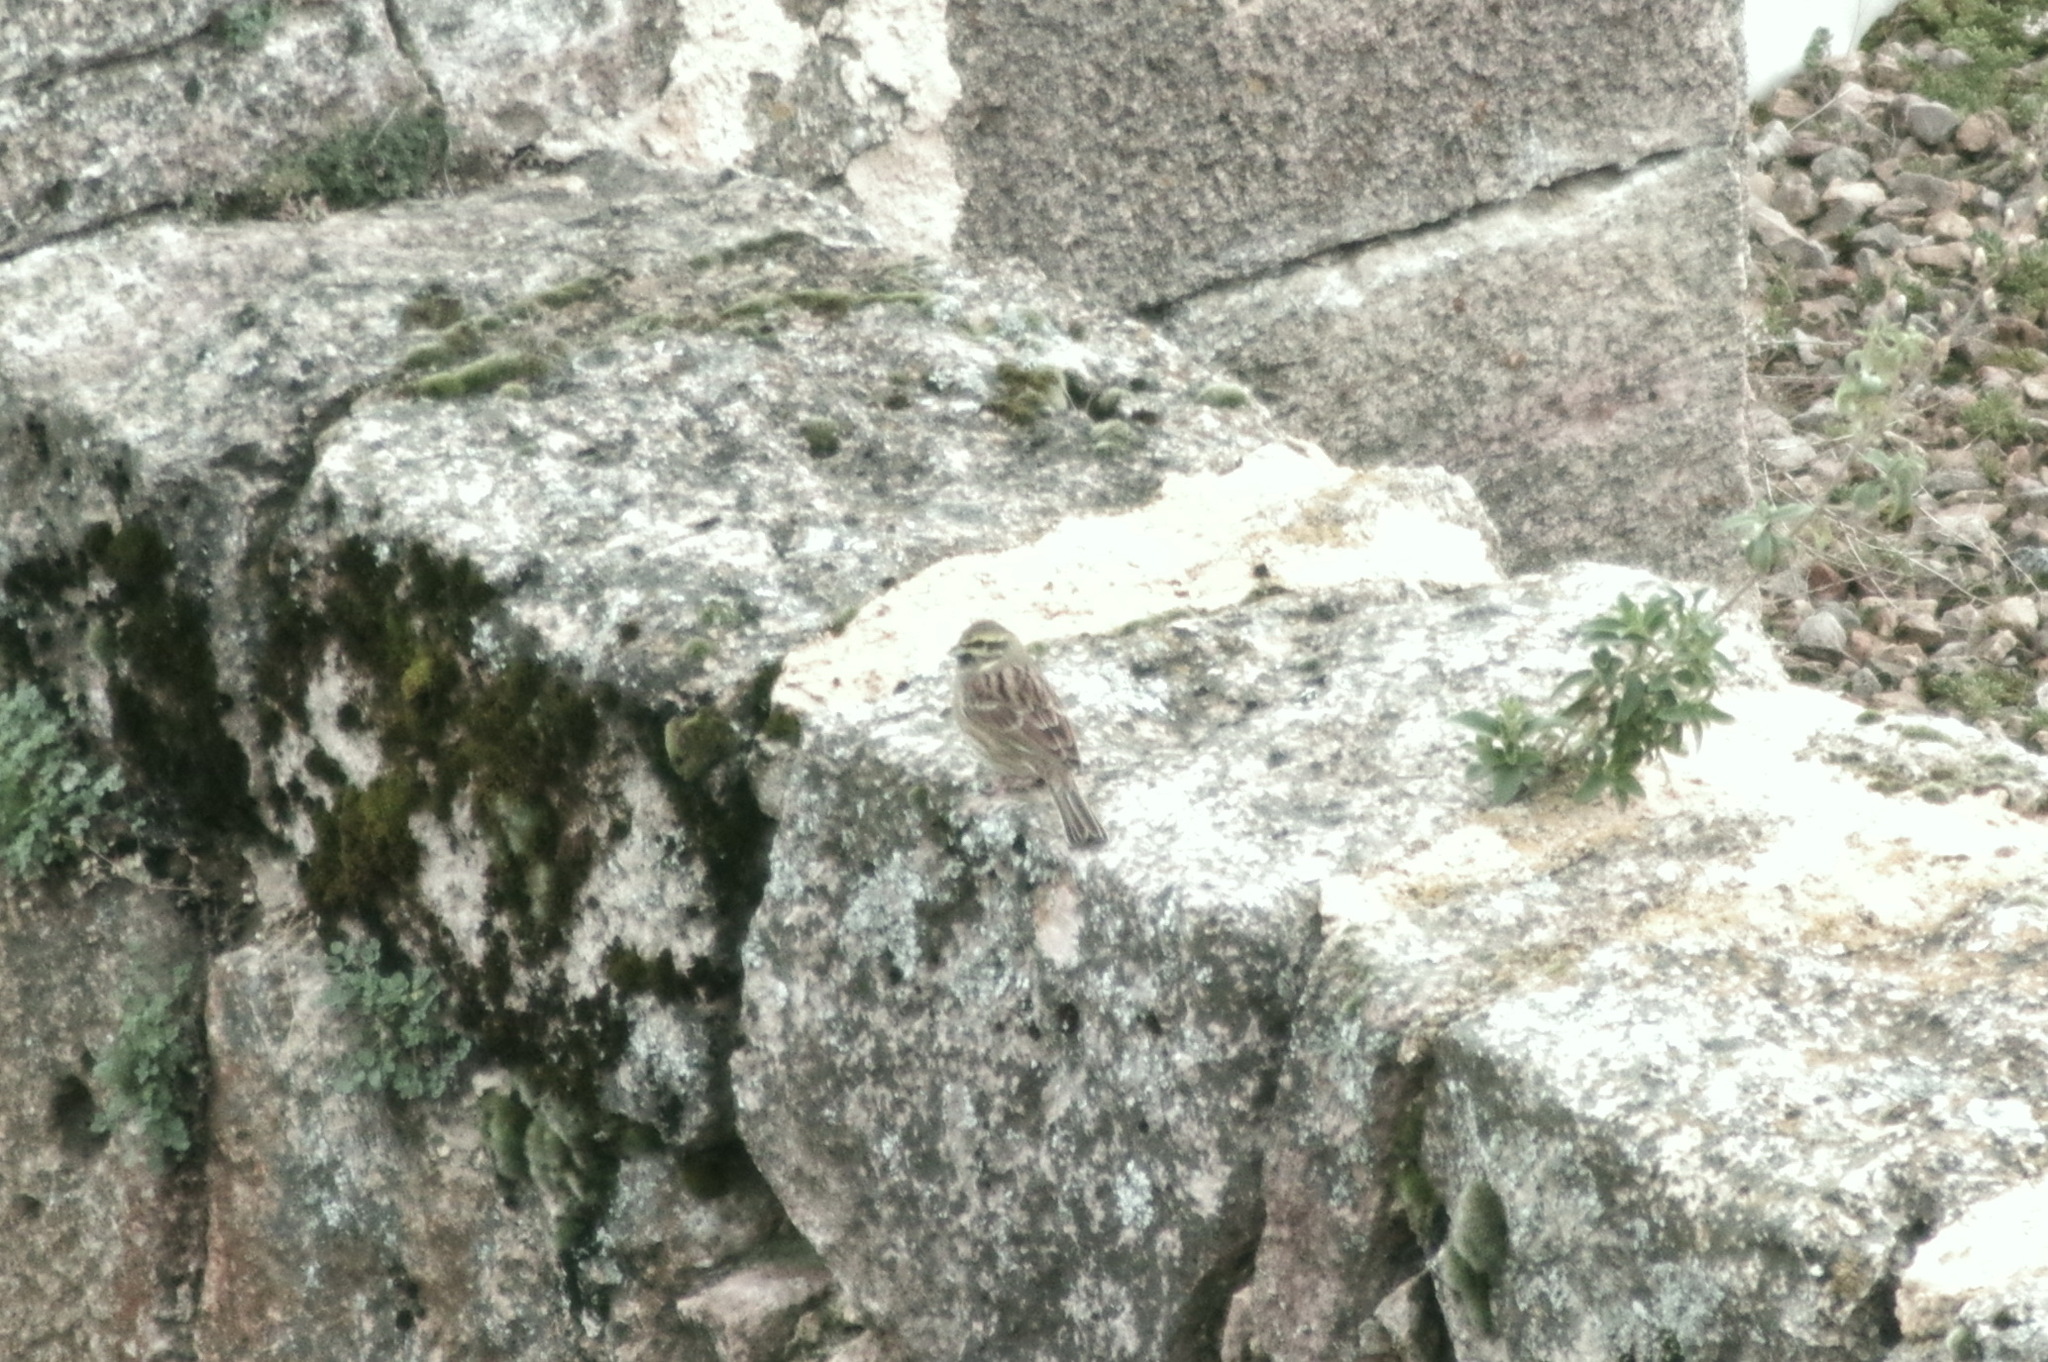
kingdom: Animalia
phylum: Chordata
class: Aves
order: Passeriformes
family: Emberizidae
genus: Emberiza
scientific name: Emberiza cirlus
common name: Cirl bunting
